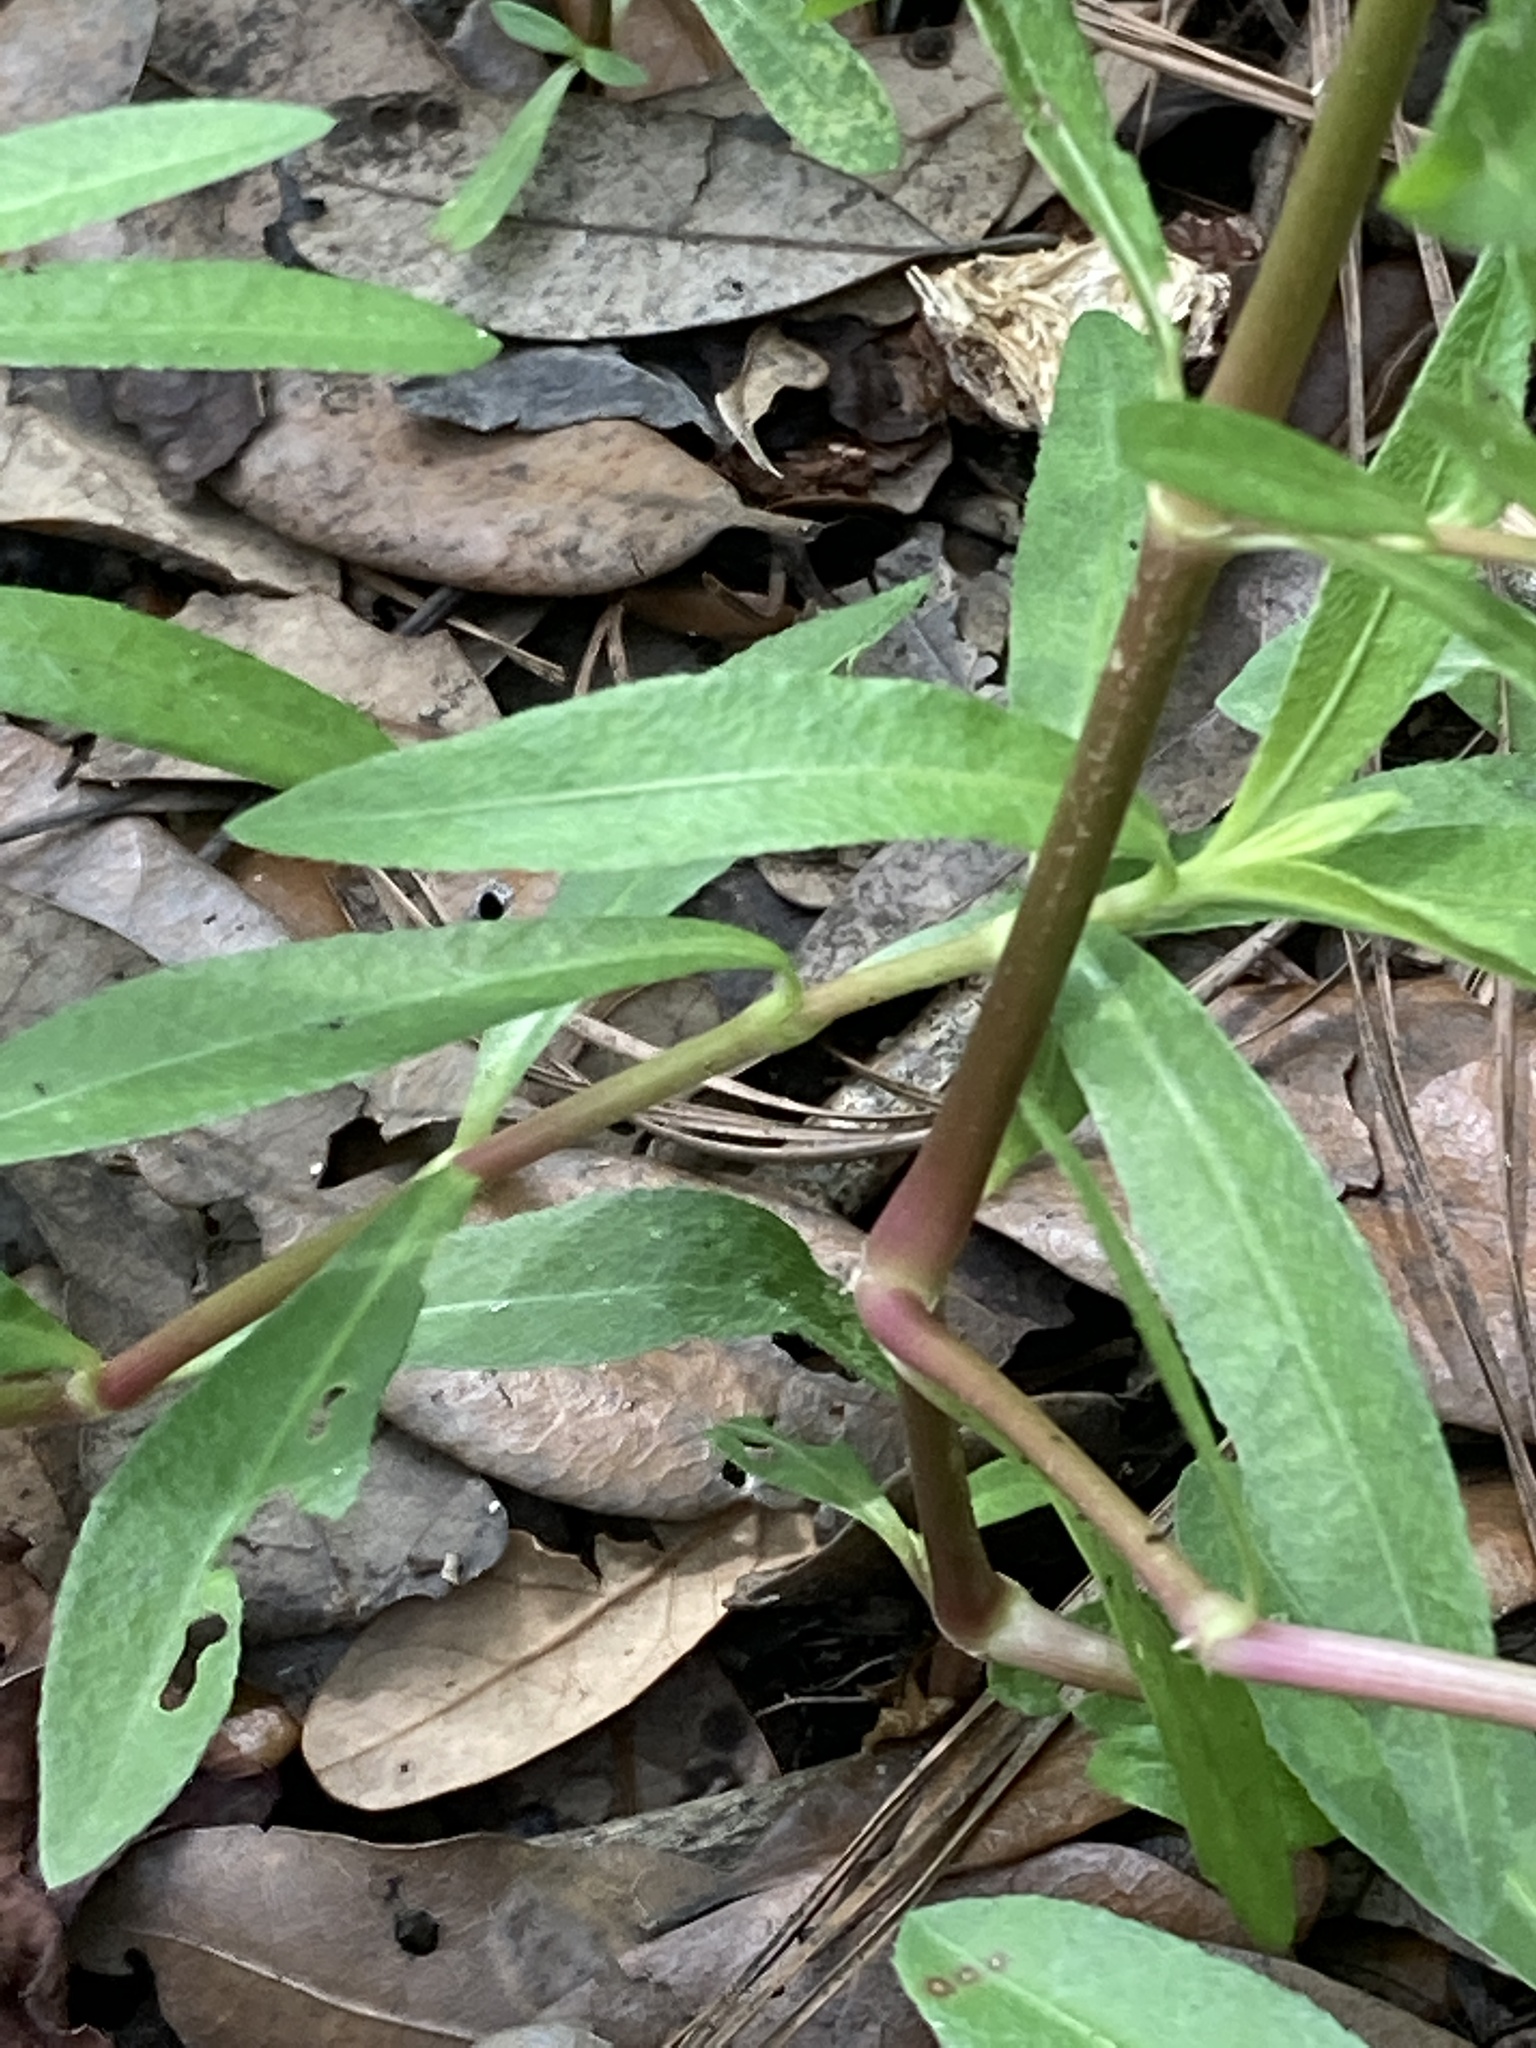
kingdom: Plantae
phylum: Tracheophyta
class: Magnoliopsida
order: Caryophyllales
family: Amaranthaceae
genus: Alternanthera
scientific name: Alternanthera philoxeroides
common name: Alligatorweed
